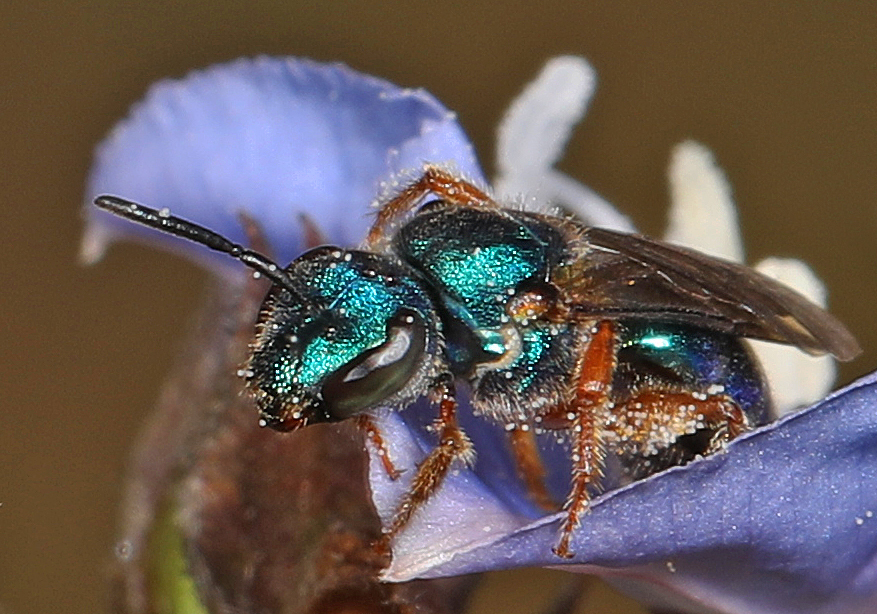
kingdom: Animalia
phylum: Arthropoda
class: Insecta
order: Hymenoptera
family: Halictidae
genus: Augochlora
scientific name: Augochlora pura
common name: Pure green sweat bee
